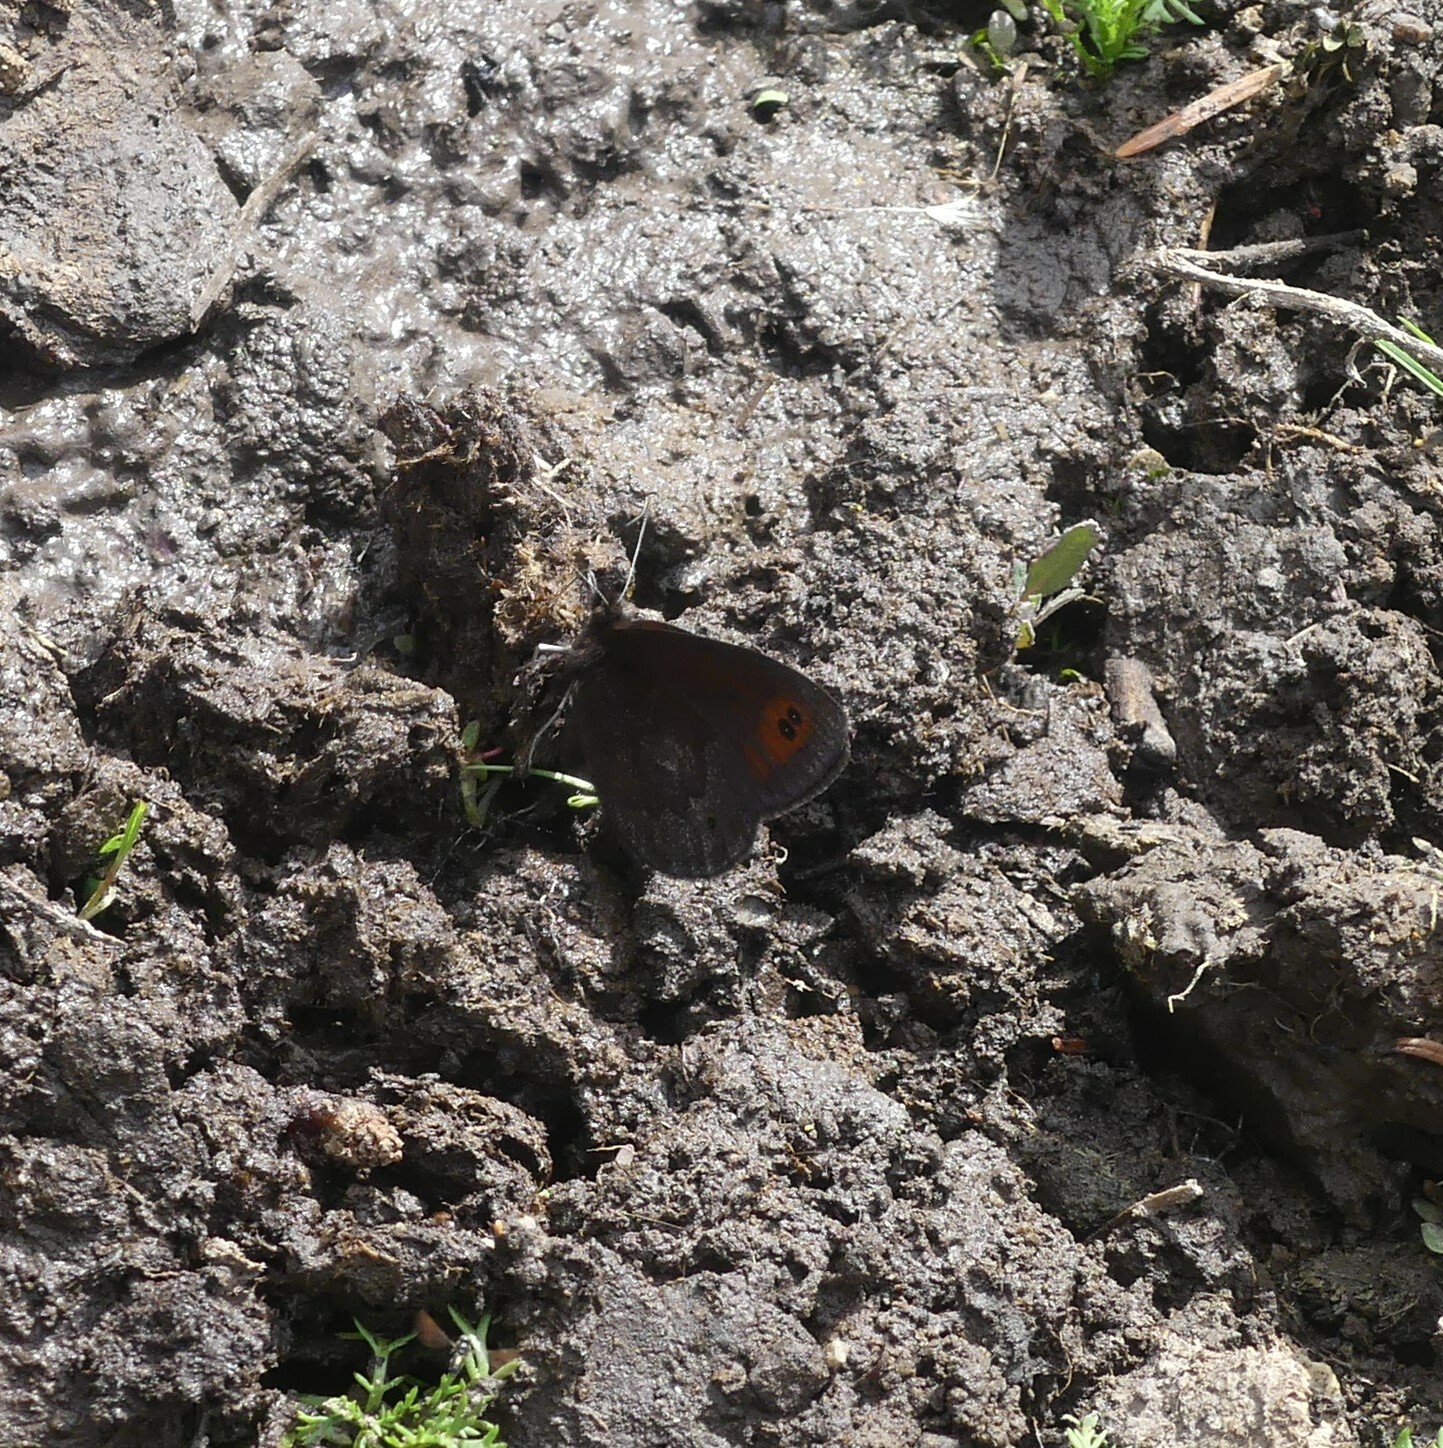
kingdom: Animalia
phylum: Arthropoda
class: Insecta
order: Lepidoptera
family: Nymphalidae
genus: Erebia
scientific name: Erebia epipsodea
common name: Common alpine
